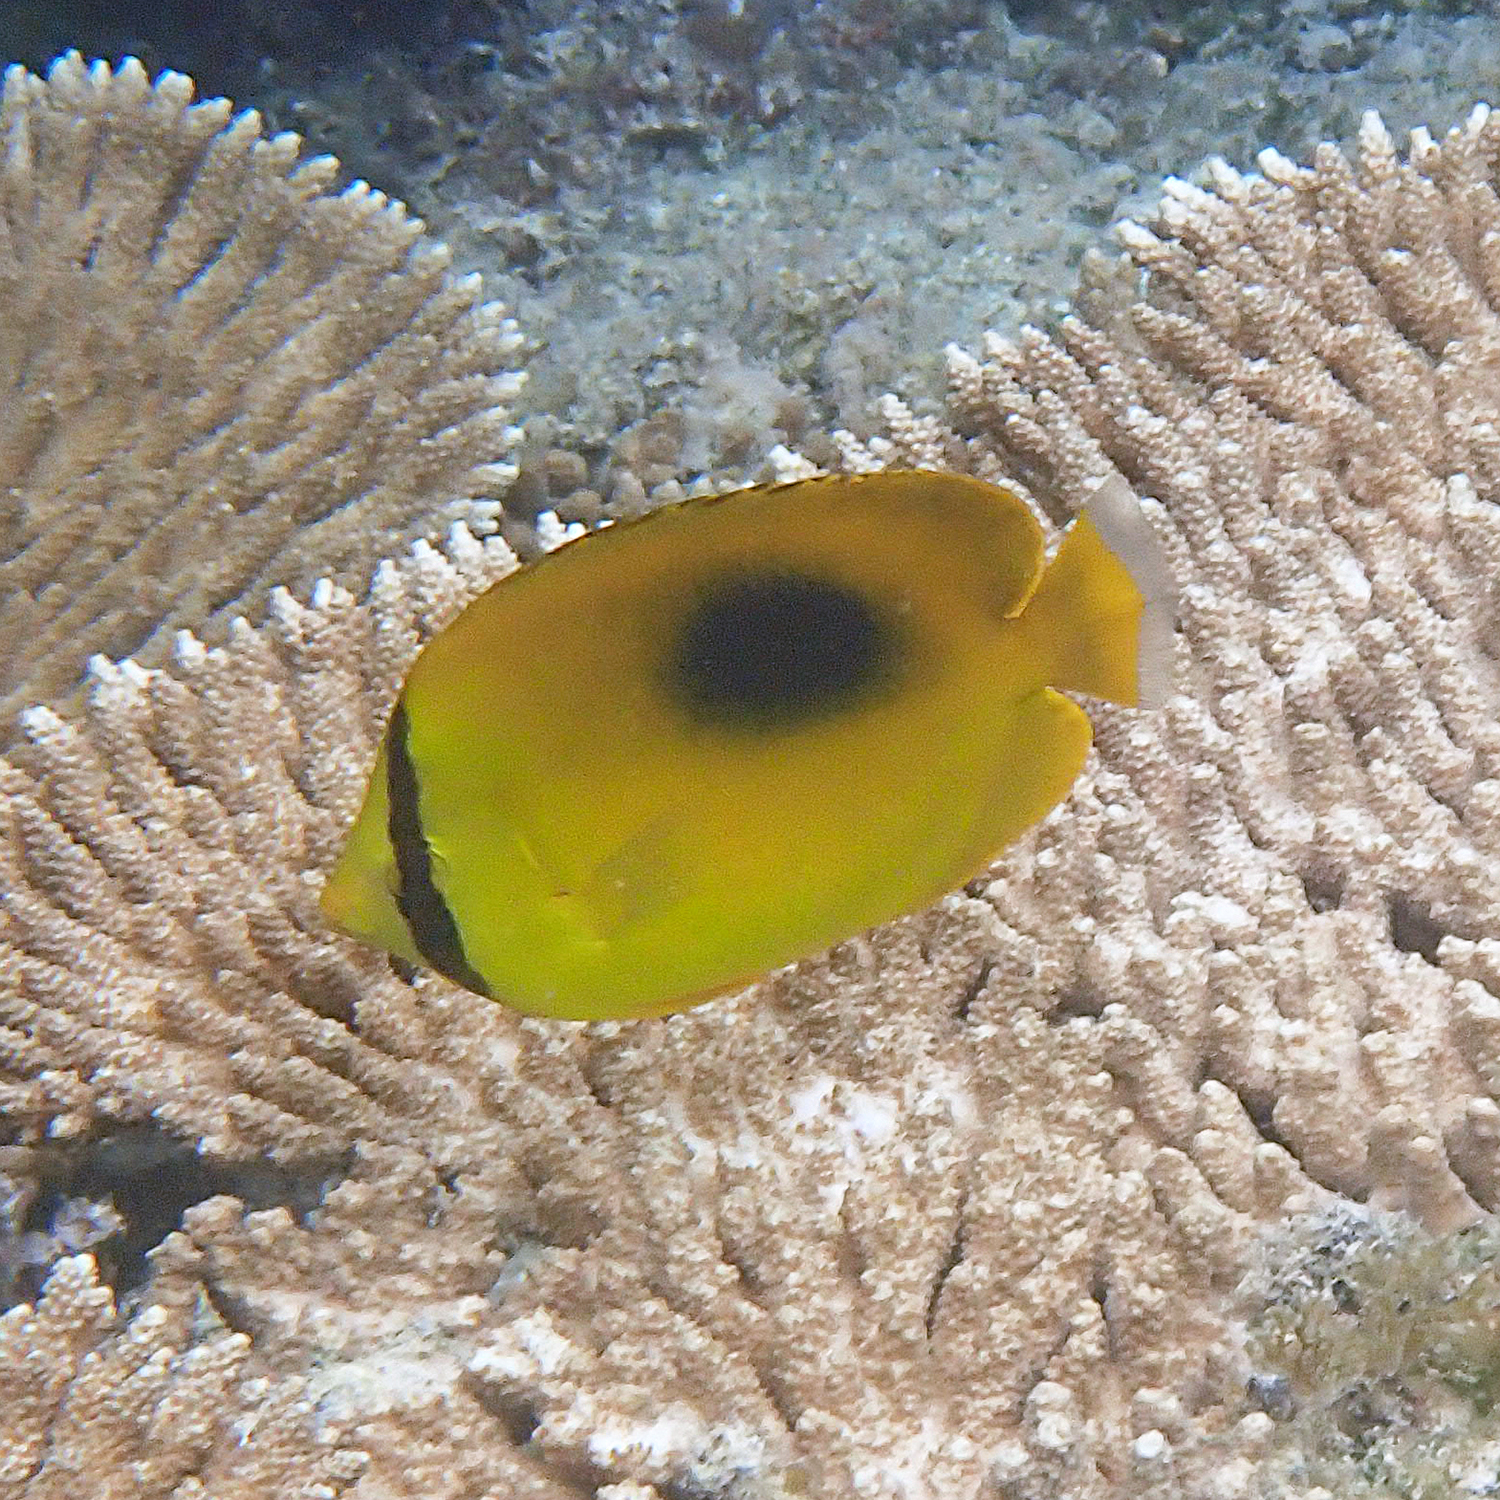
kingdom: Animalia
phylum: Chordata
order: Perciformes
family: Chaetodontidae
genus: Chaetodon
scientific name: Chaetodon speculum
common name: Mirror butterflyfish
